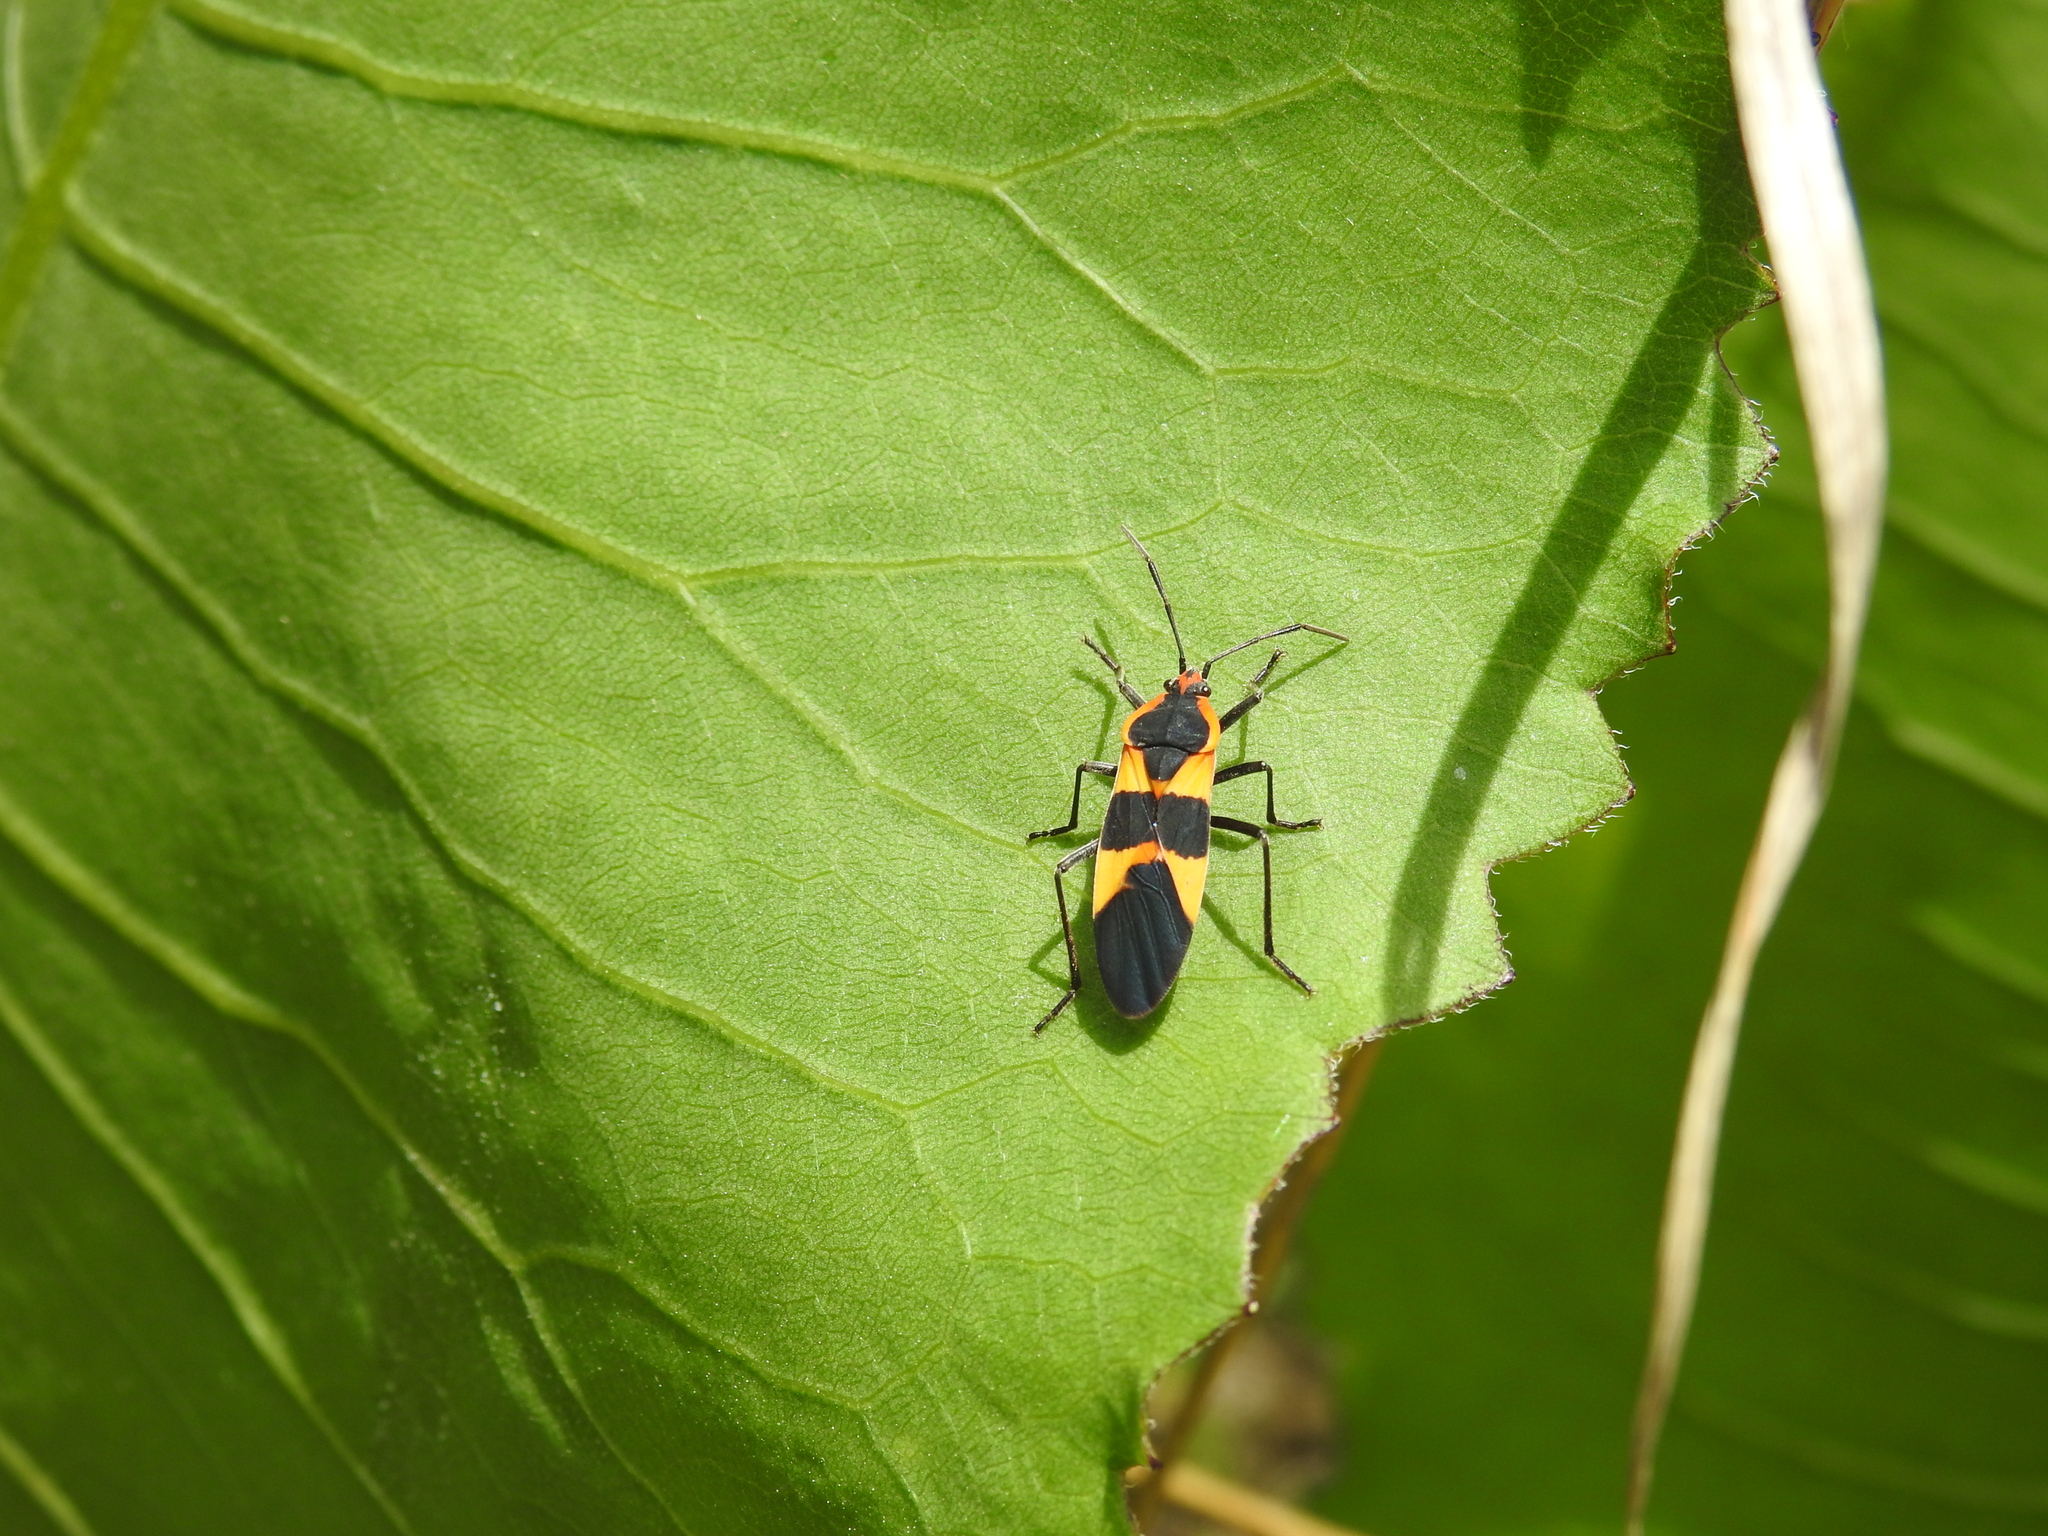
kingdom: Animalia
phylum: Arthropoda
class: Insecta
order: Hemiptera
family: Lygaeidae
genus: Oncopeltus
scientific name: Oncopeltus fasciatus
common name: Large milkweed bug
